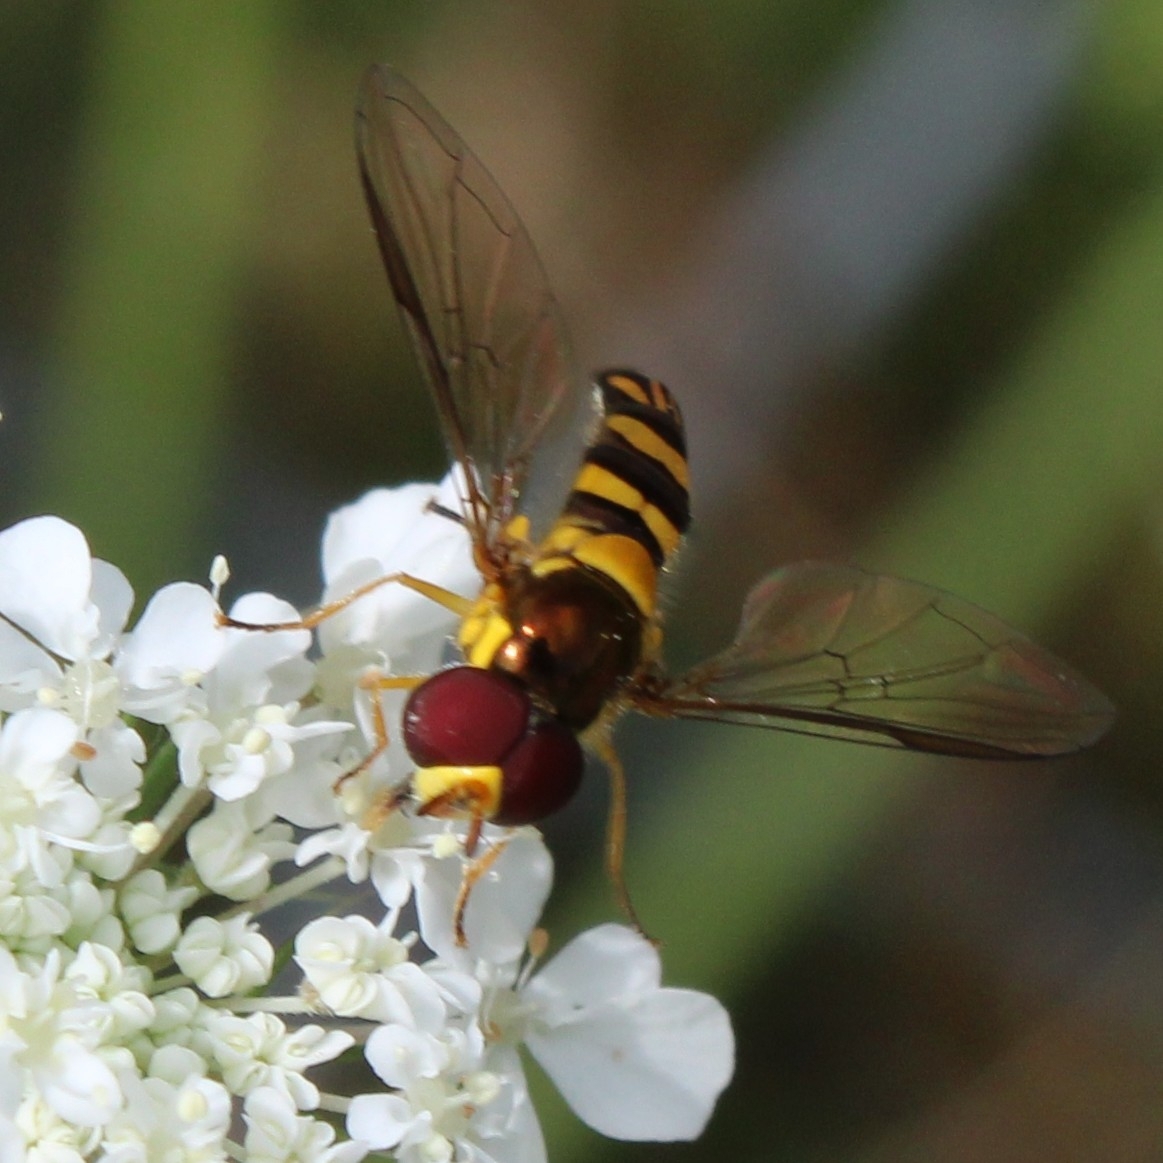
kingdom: Animalia
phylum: Arthropoda
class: Insecta
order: Diptera
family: Syrphidae
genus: Allograpta
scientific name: Allograpta obliqua
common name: Common oblique syrphid
